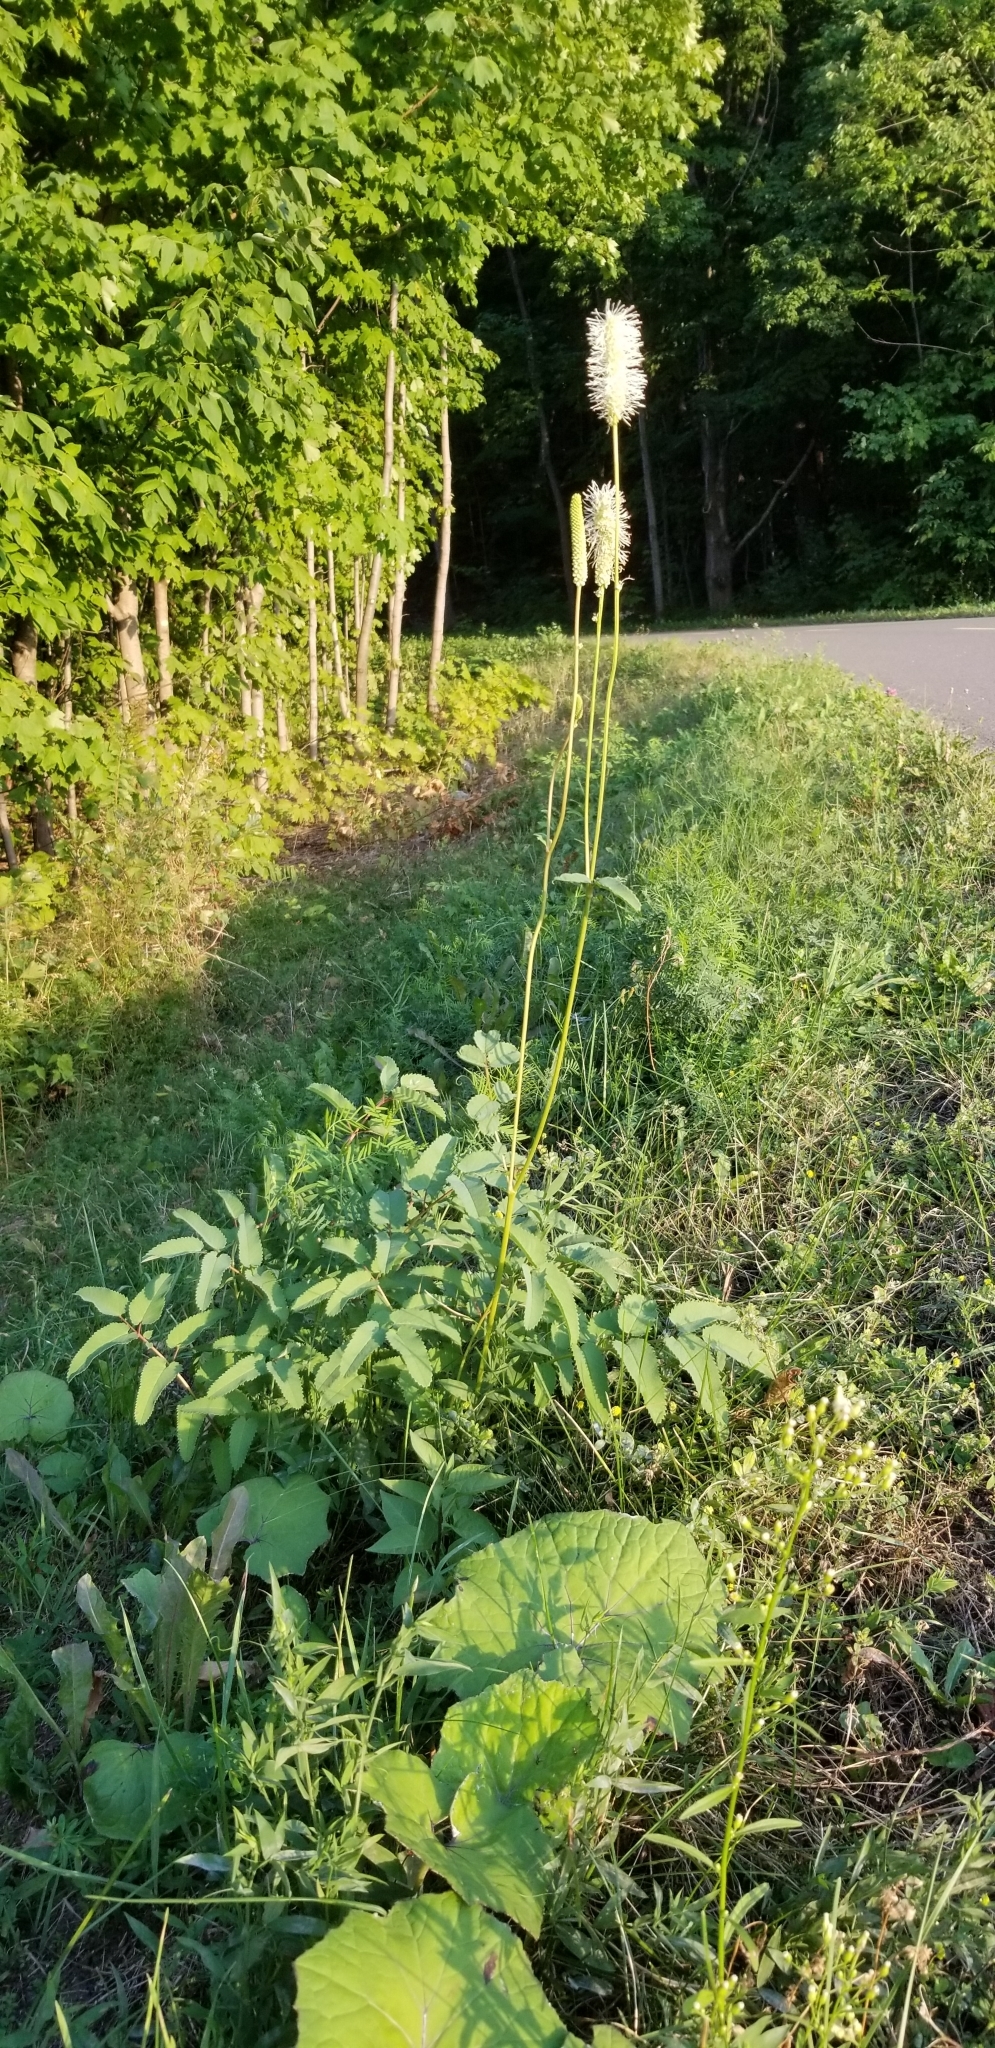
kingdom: Plantae
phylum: Tracheophyta
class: Magnoliopsida
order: Rosales
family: Rosaceae
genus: Sanguisorba
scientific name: Sanguisorba canadensis
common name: White burnet
